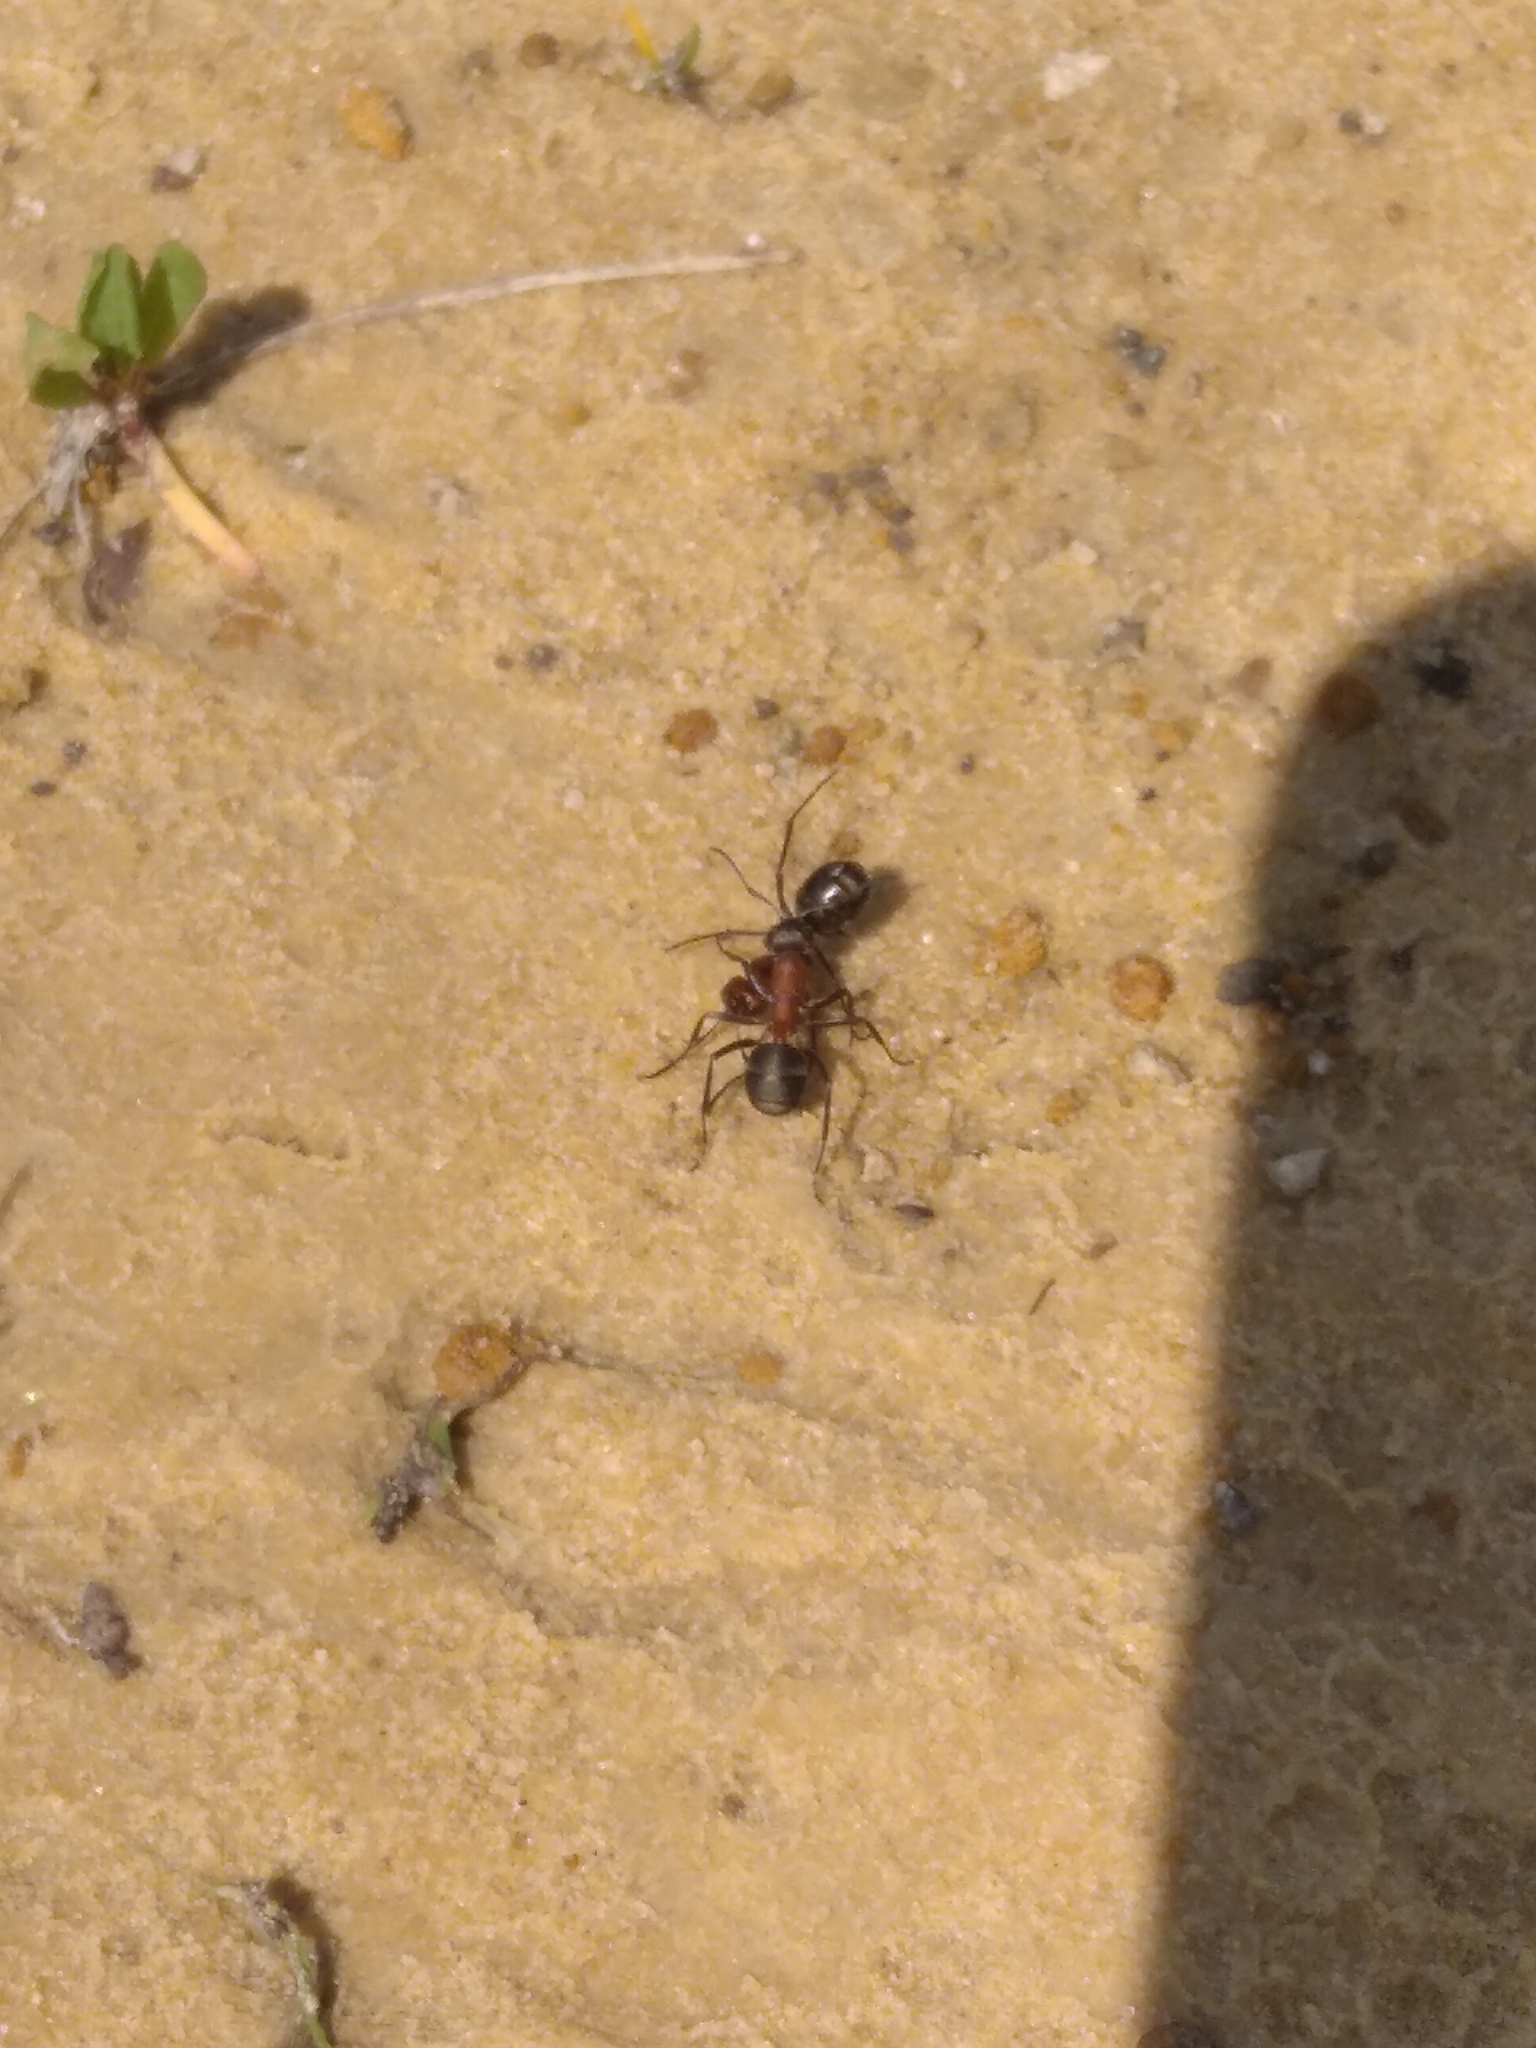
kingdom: Animalia
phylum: Arthropoda
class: Insecta
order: Hymenoptera
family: Formicidae
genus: Formica
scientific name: Formica
